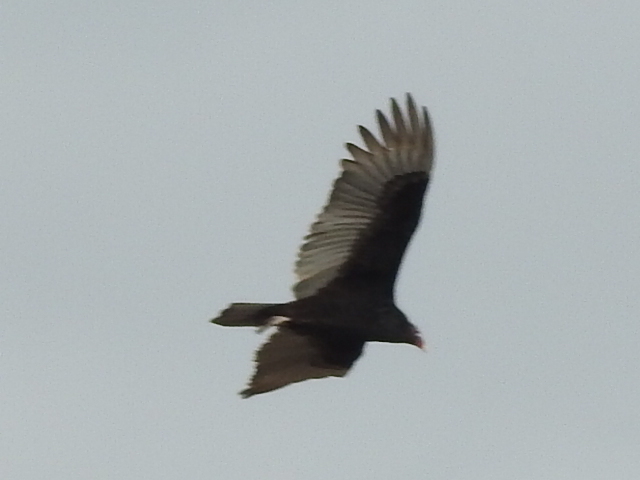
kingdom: Animalia
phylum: Chordata
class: Aves
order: Accipitriformes
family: Cathartidae
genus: Cathartes
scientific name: Cathartes aura
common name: Turkey vulture
